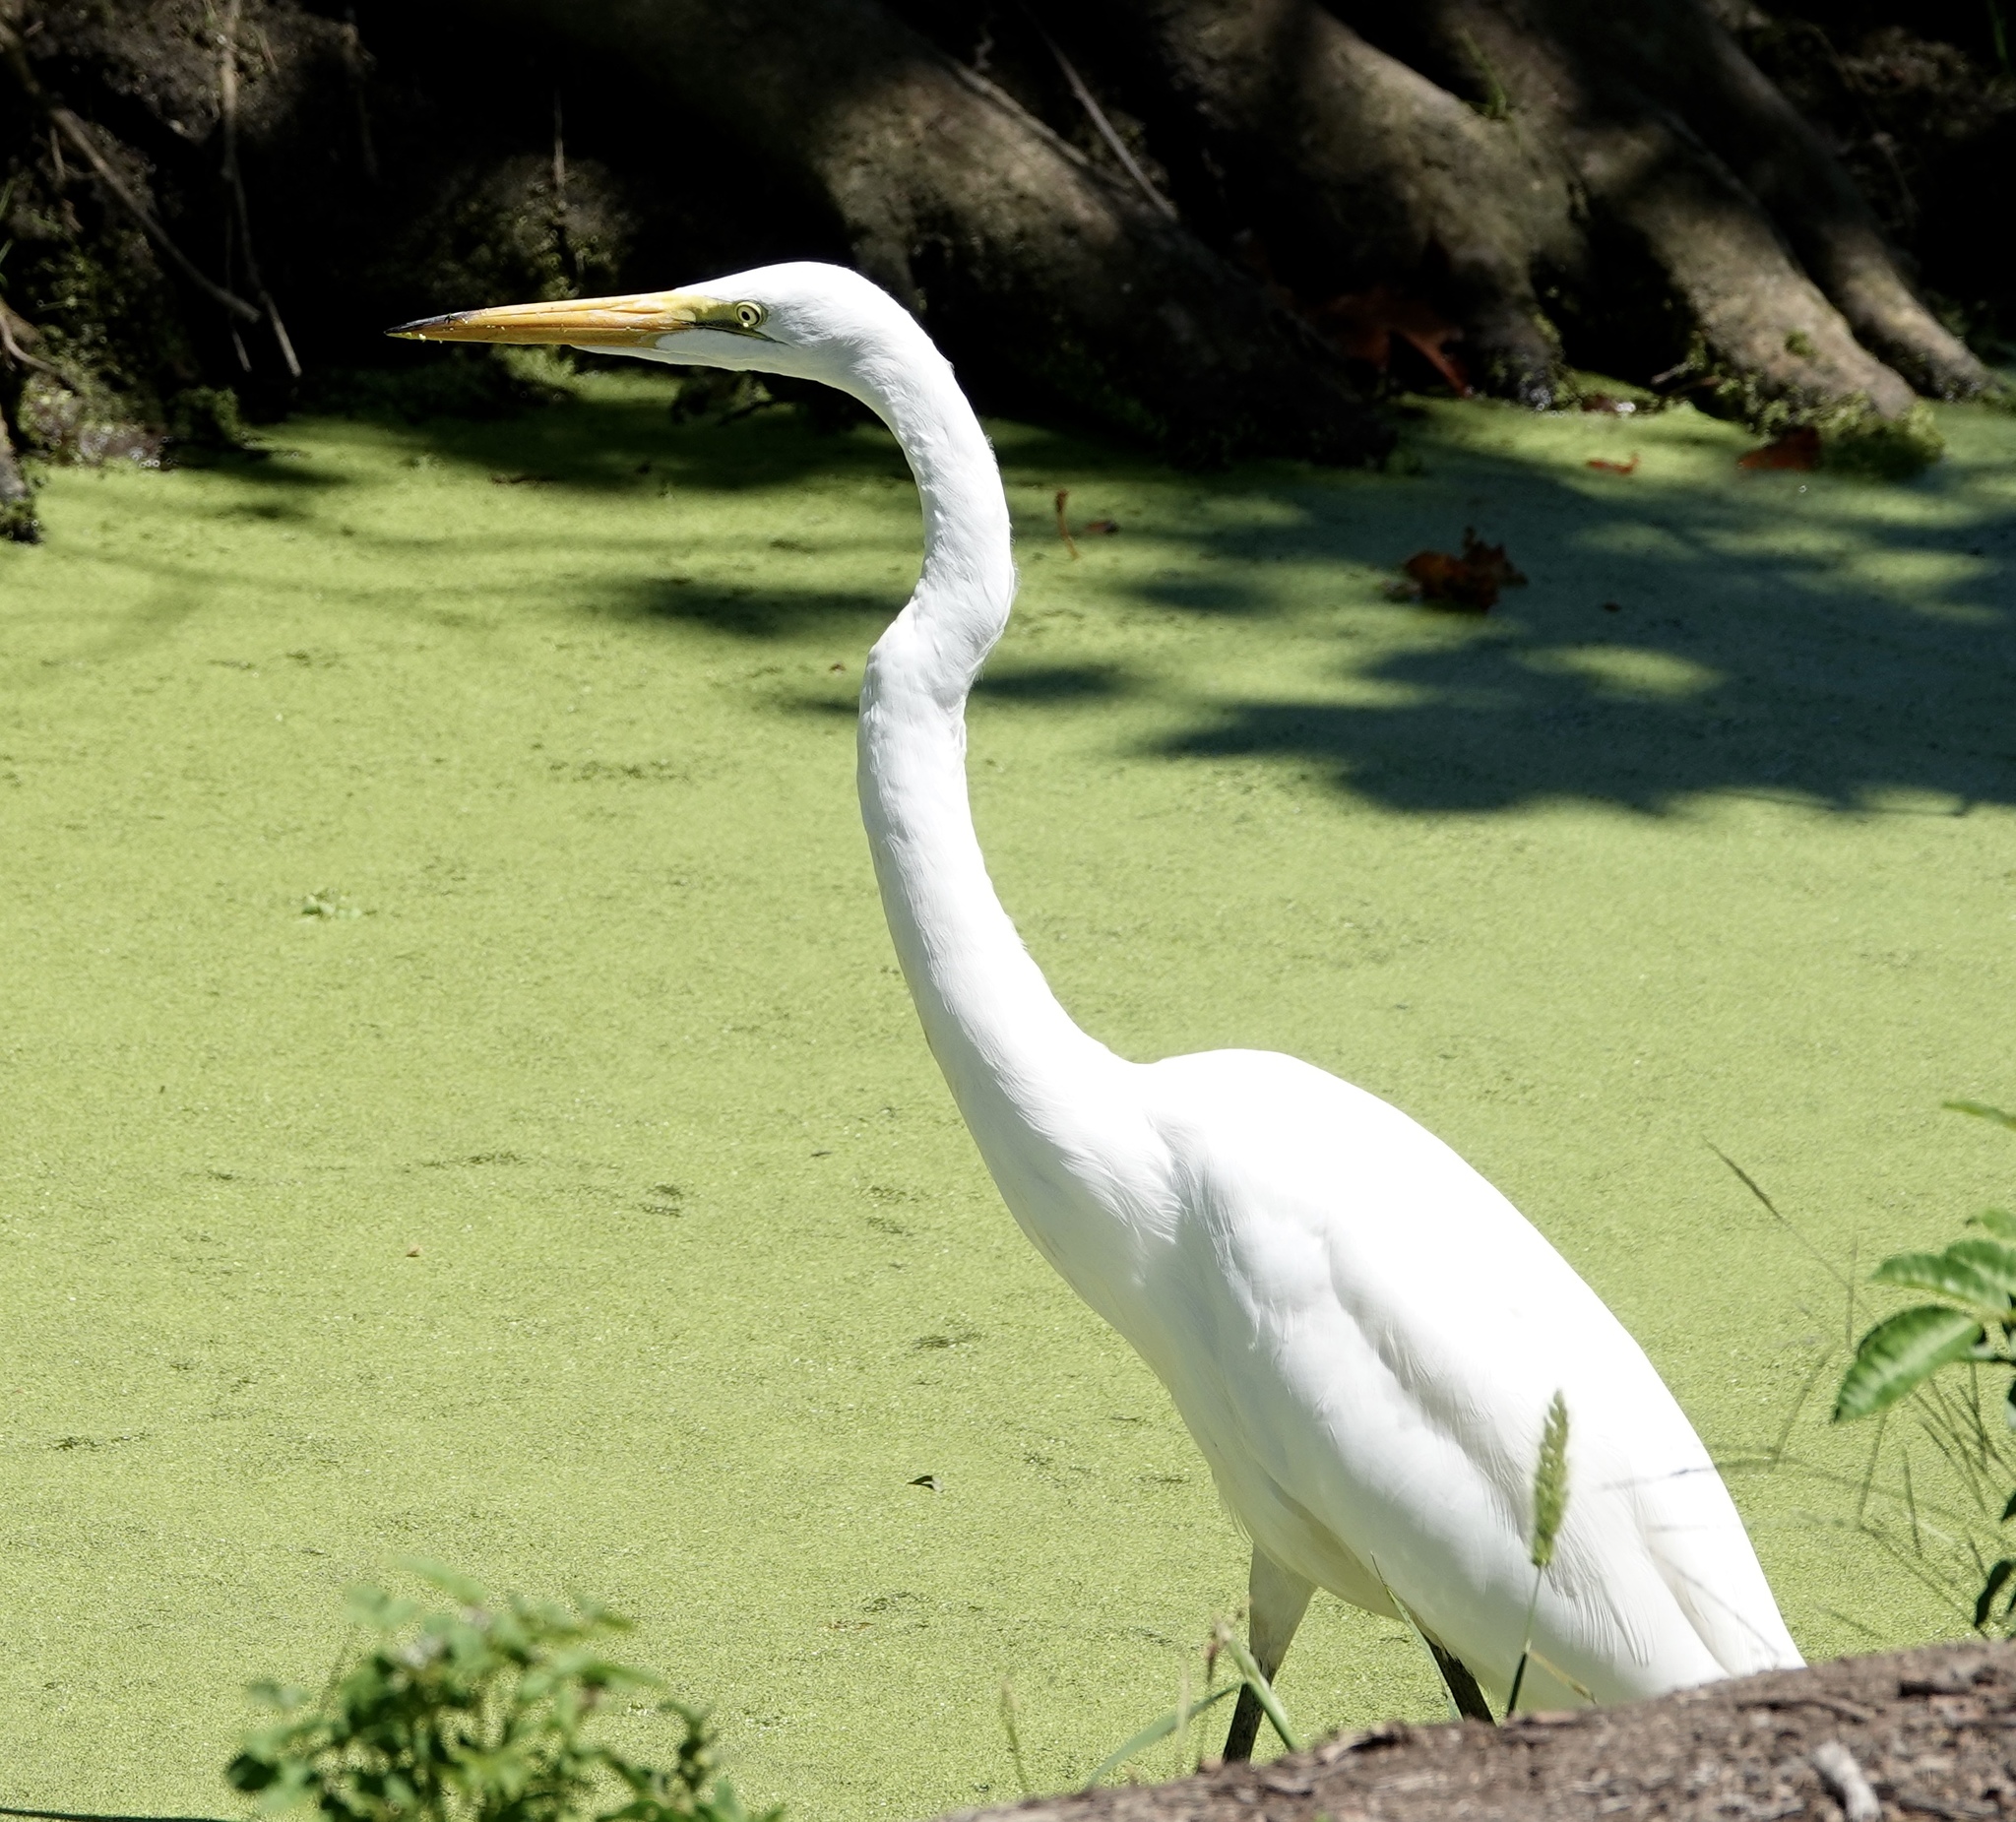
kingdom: Animalia
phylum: Chordata
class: Aves
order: Pelecaniformes
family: Ardeidae
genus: Ardea
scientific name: Ardea alba
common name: Great egret
